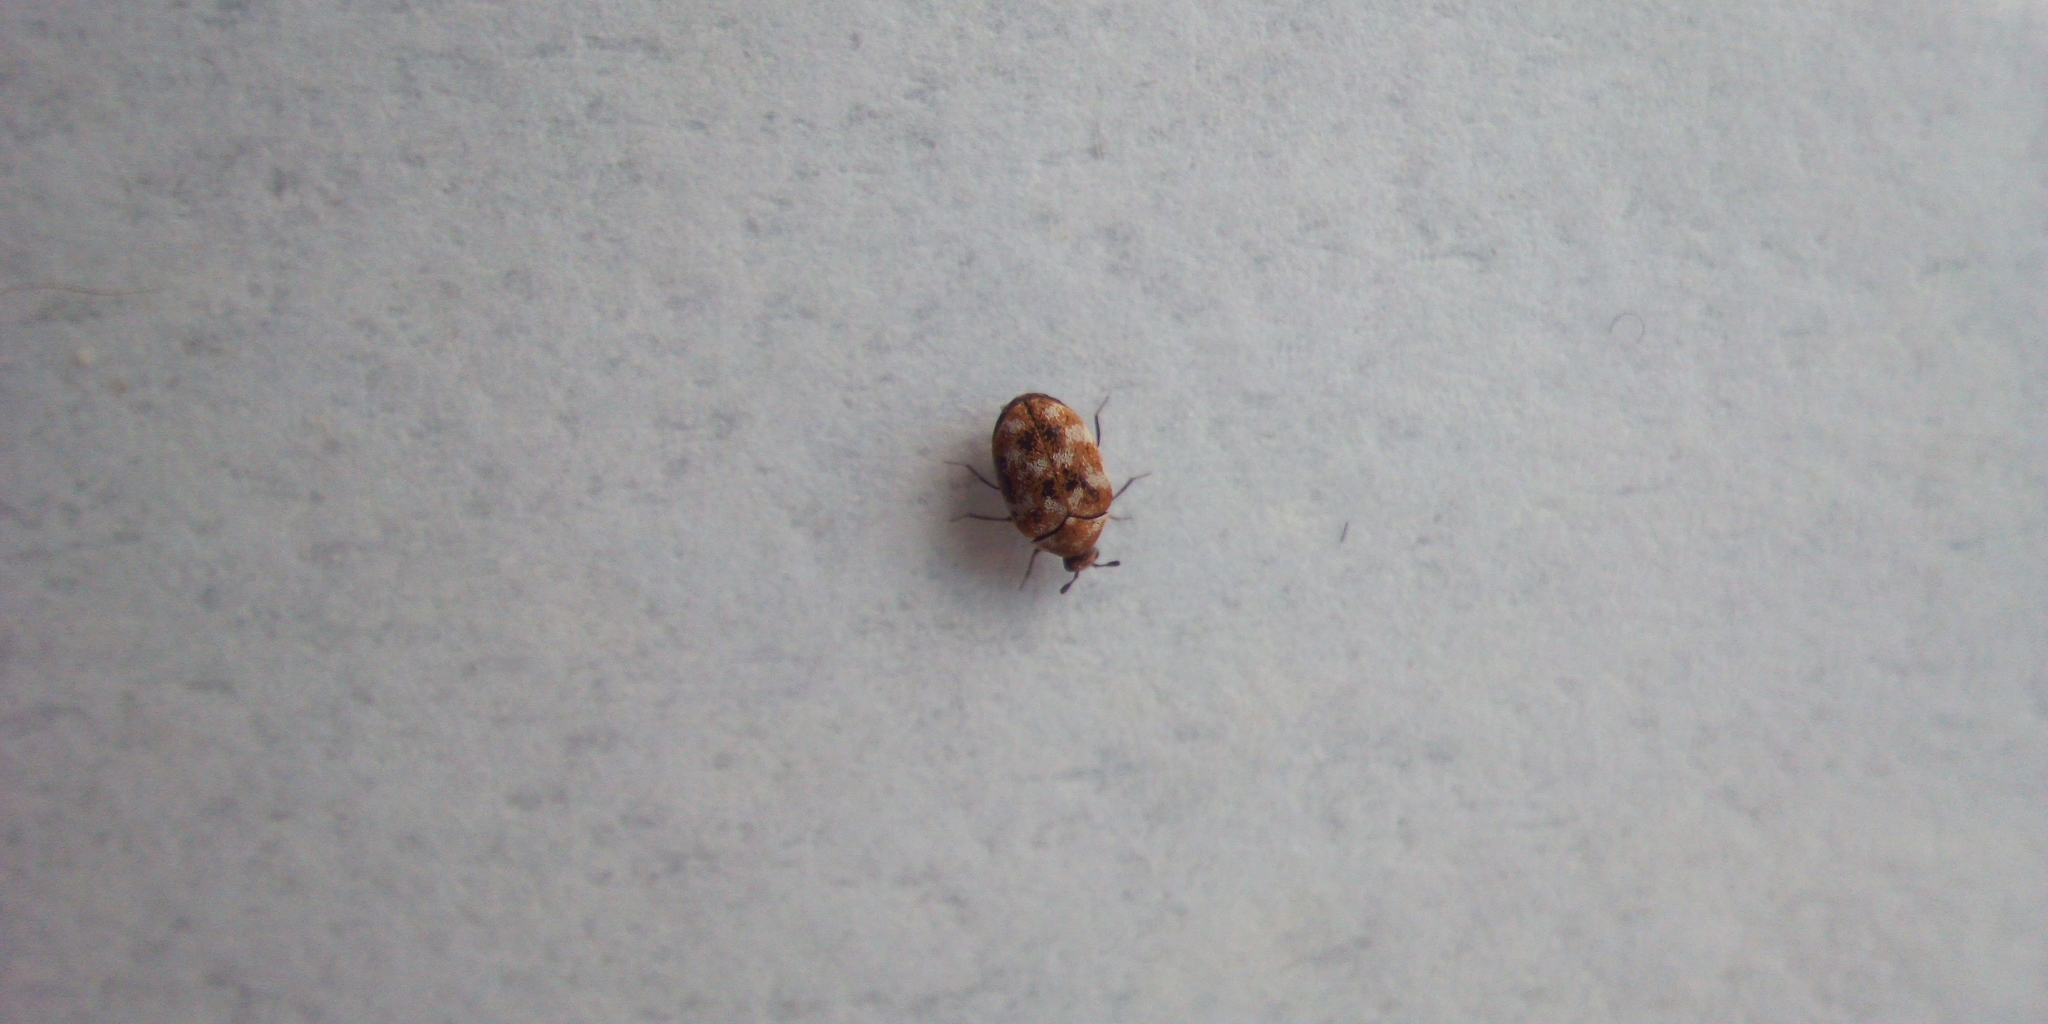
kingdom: Animalia
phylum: Arthropoda
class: Insecta
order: Coleoptera
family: Dermestidae
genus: Anthrenus
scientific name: Anthrenus verbasci
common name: Varied carpet beetle
